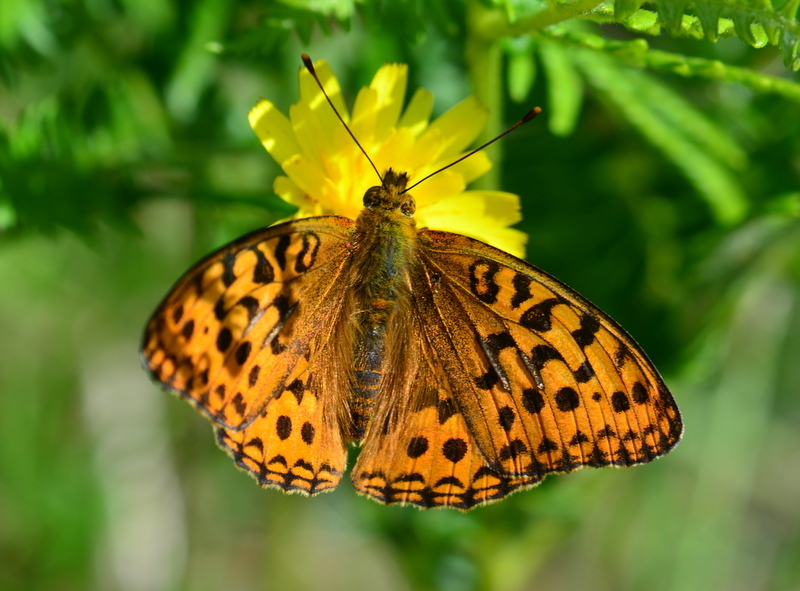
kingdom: Animalia
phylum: Arthropoda
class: Insecta
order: Lepidoptera
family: Nymphalidae
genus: Fabriciana
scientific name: Fabriciana adippe
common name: High brown fritillary
